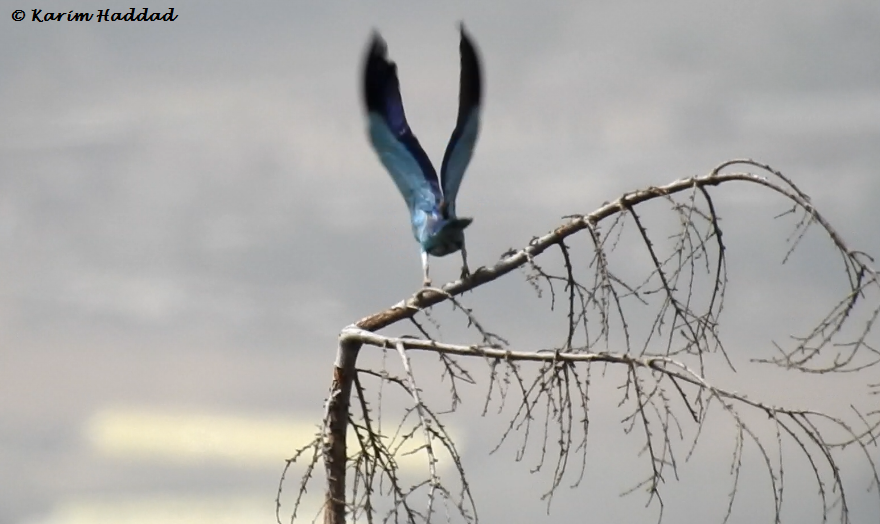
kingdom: Animalia
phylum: Chordata
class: Aves
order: Coraciiformes
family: Coraciidae
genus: Coracias
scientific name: Coracias garrulus
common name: European roller
